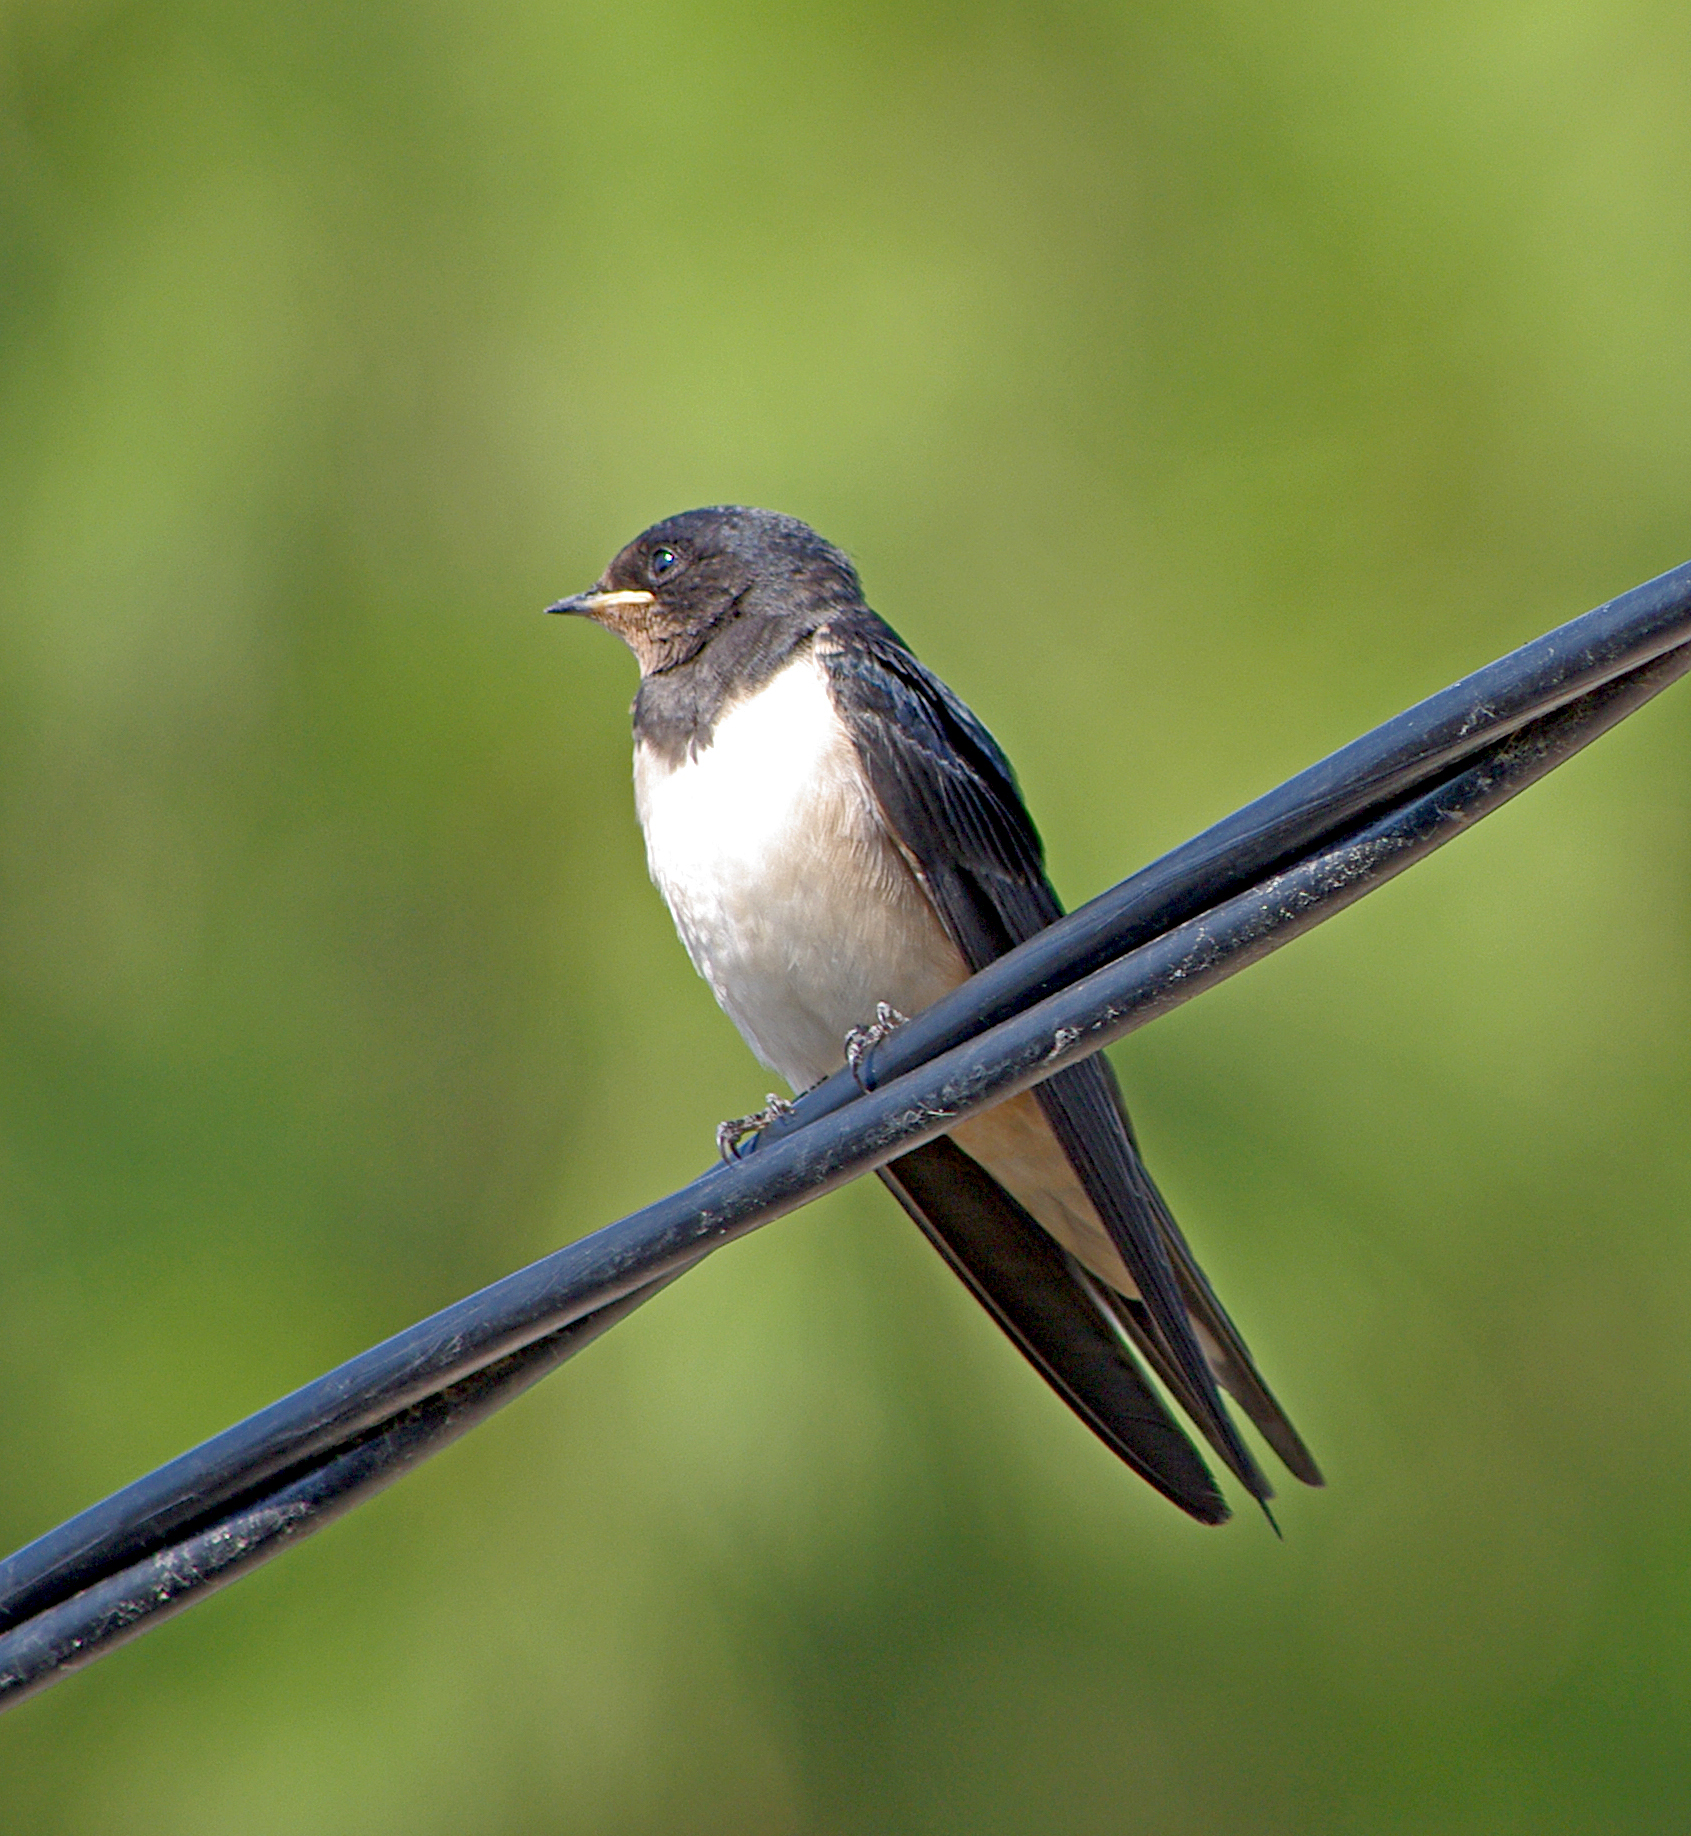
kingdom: Animalia
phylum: Chordata
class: Aves
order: Passeriformes
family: Hirundinidae
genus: Hirundo
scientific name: Hirundo rustica
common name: Barn swallow
